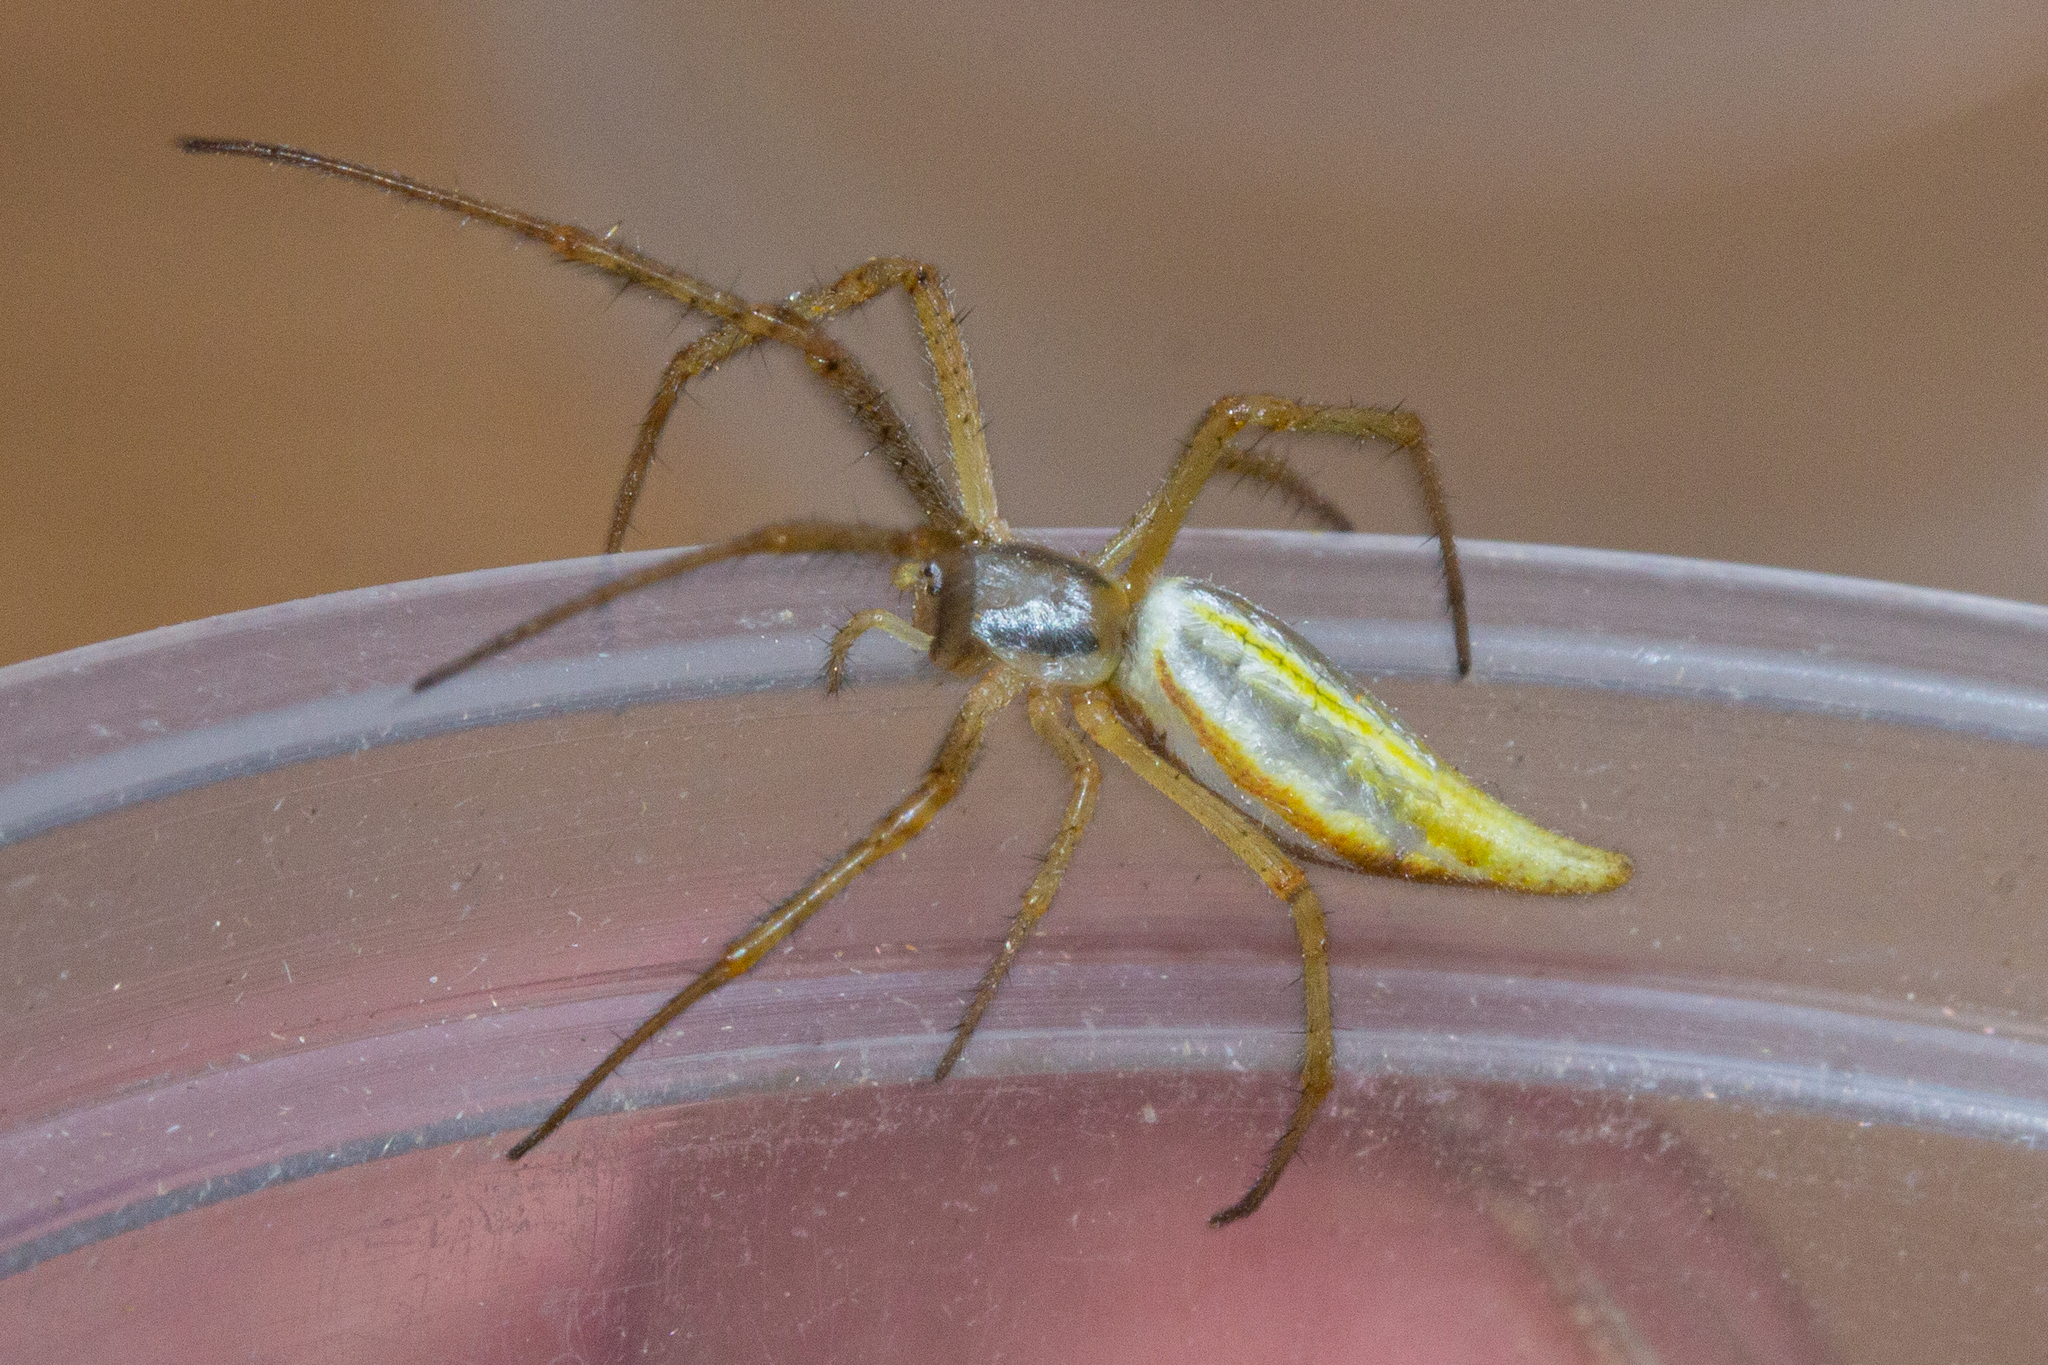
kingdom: Animalia
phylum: Arthropoda
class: Arachnida
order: Araneae
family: Araneidae
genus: Argiope
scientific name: Argiope protensa
